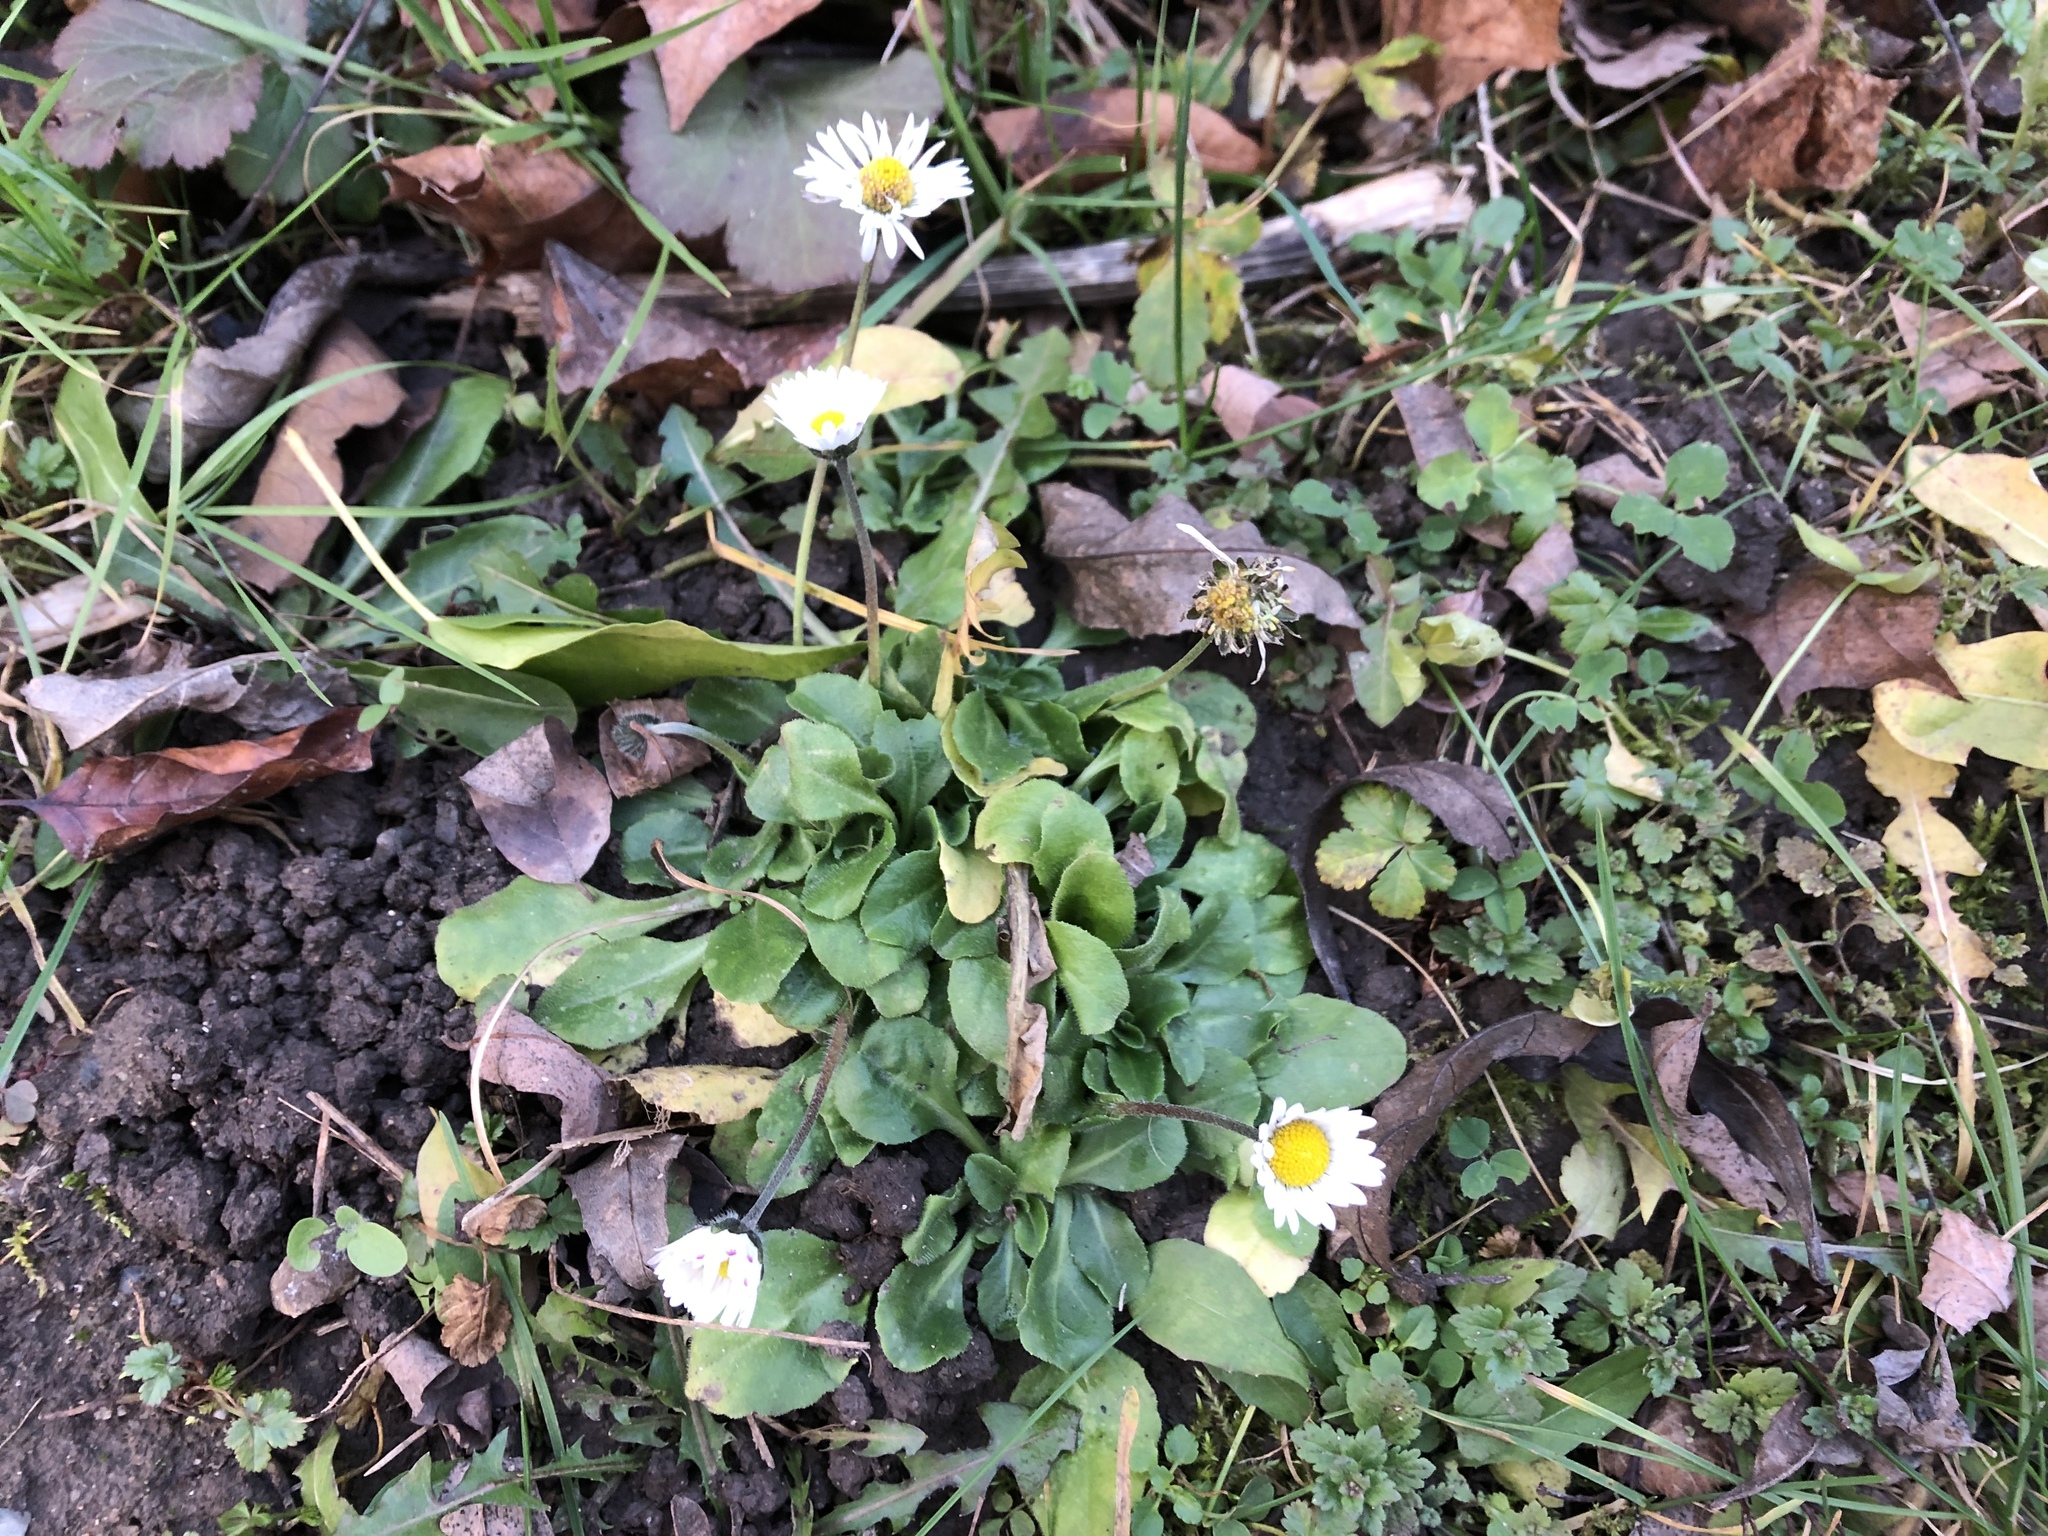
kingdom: Plantae
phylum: Tracheophyta
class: Magnoliopsida
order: Asterales
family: Asteraceae
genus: Bellis
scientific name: Bellis perennis
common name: Lawndaisy
